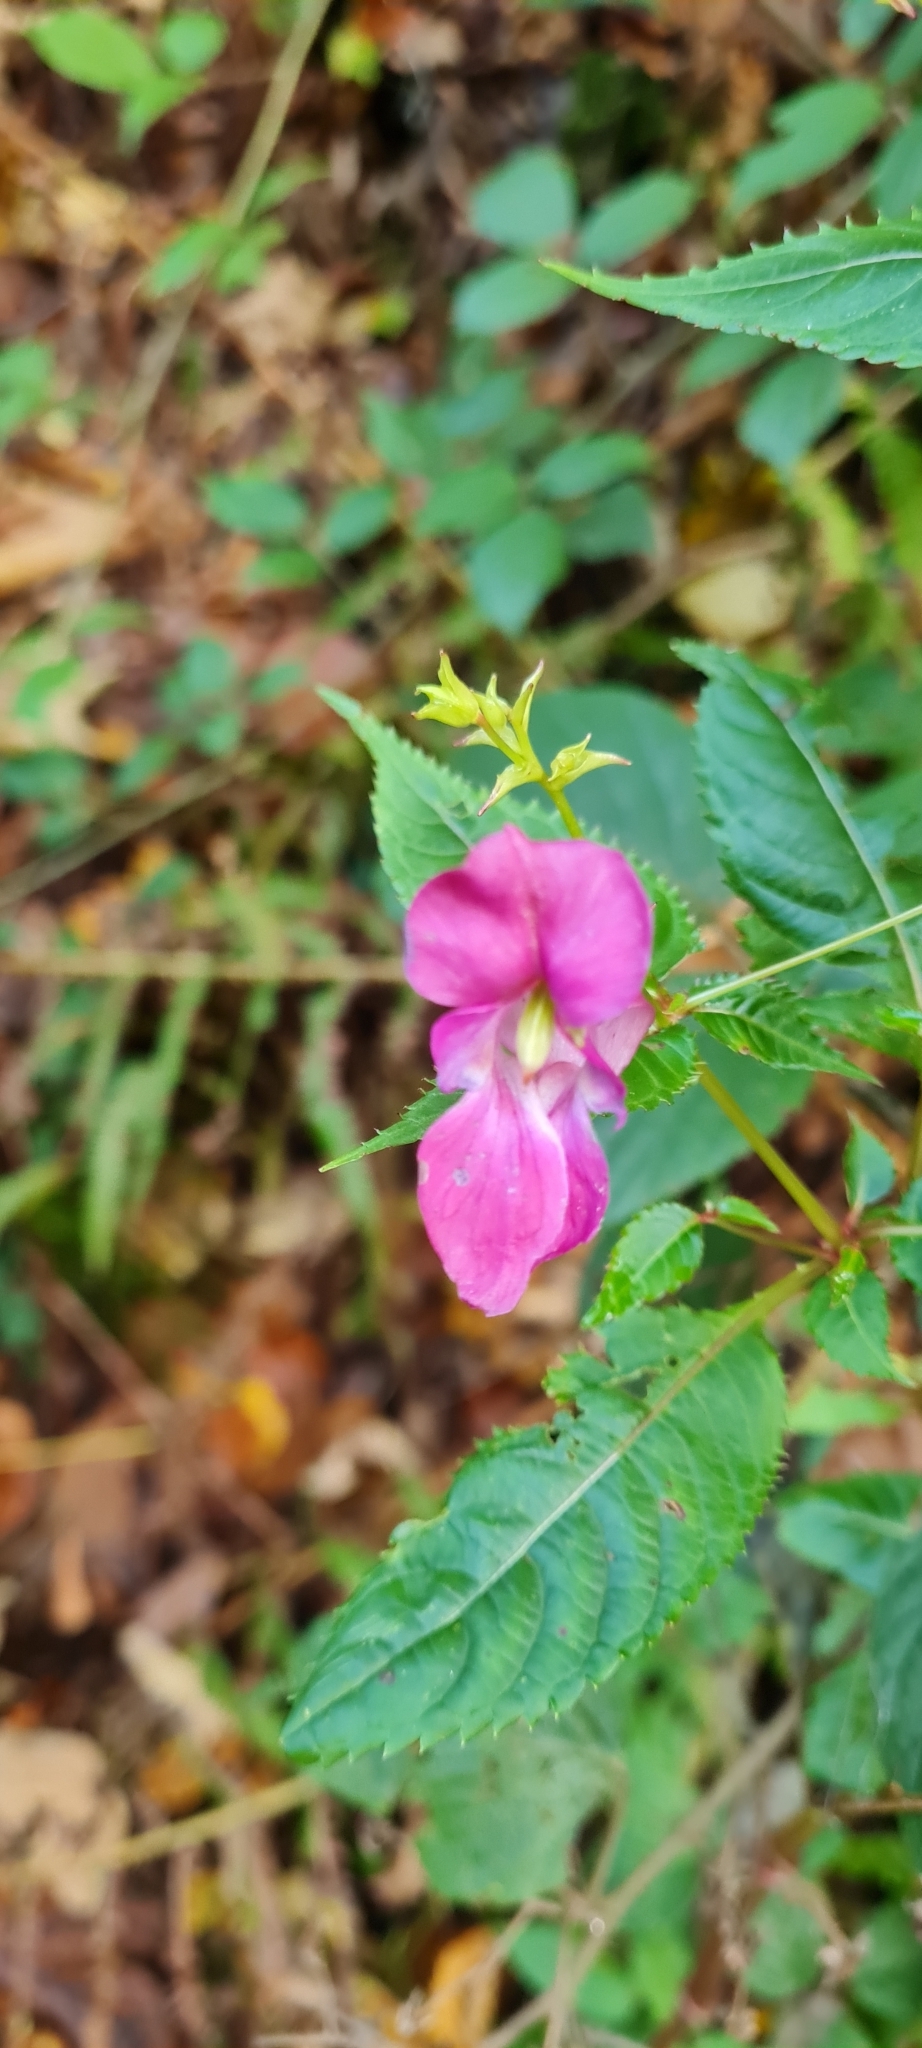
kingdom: Plantae
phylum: Tracheophyta
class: Magnoliopsida
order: Ericales
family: Balsaminaceae
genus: Impatiens
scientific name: Impatiens glandulifera
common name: Himalayan balsam
